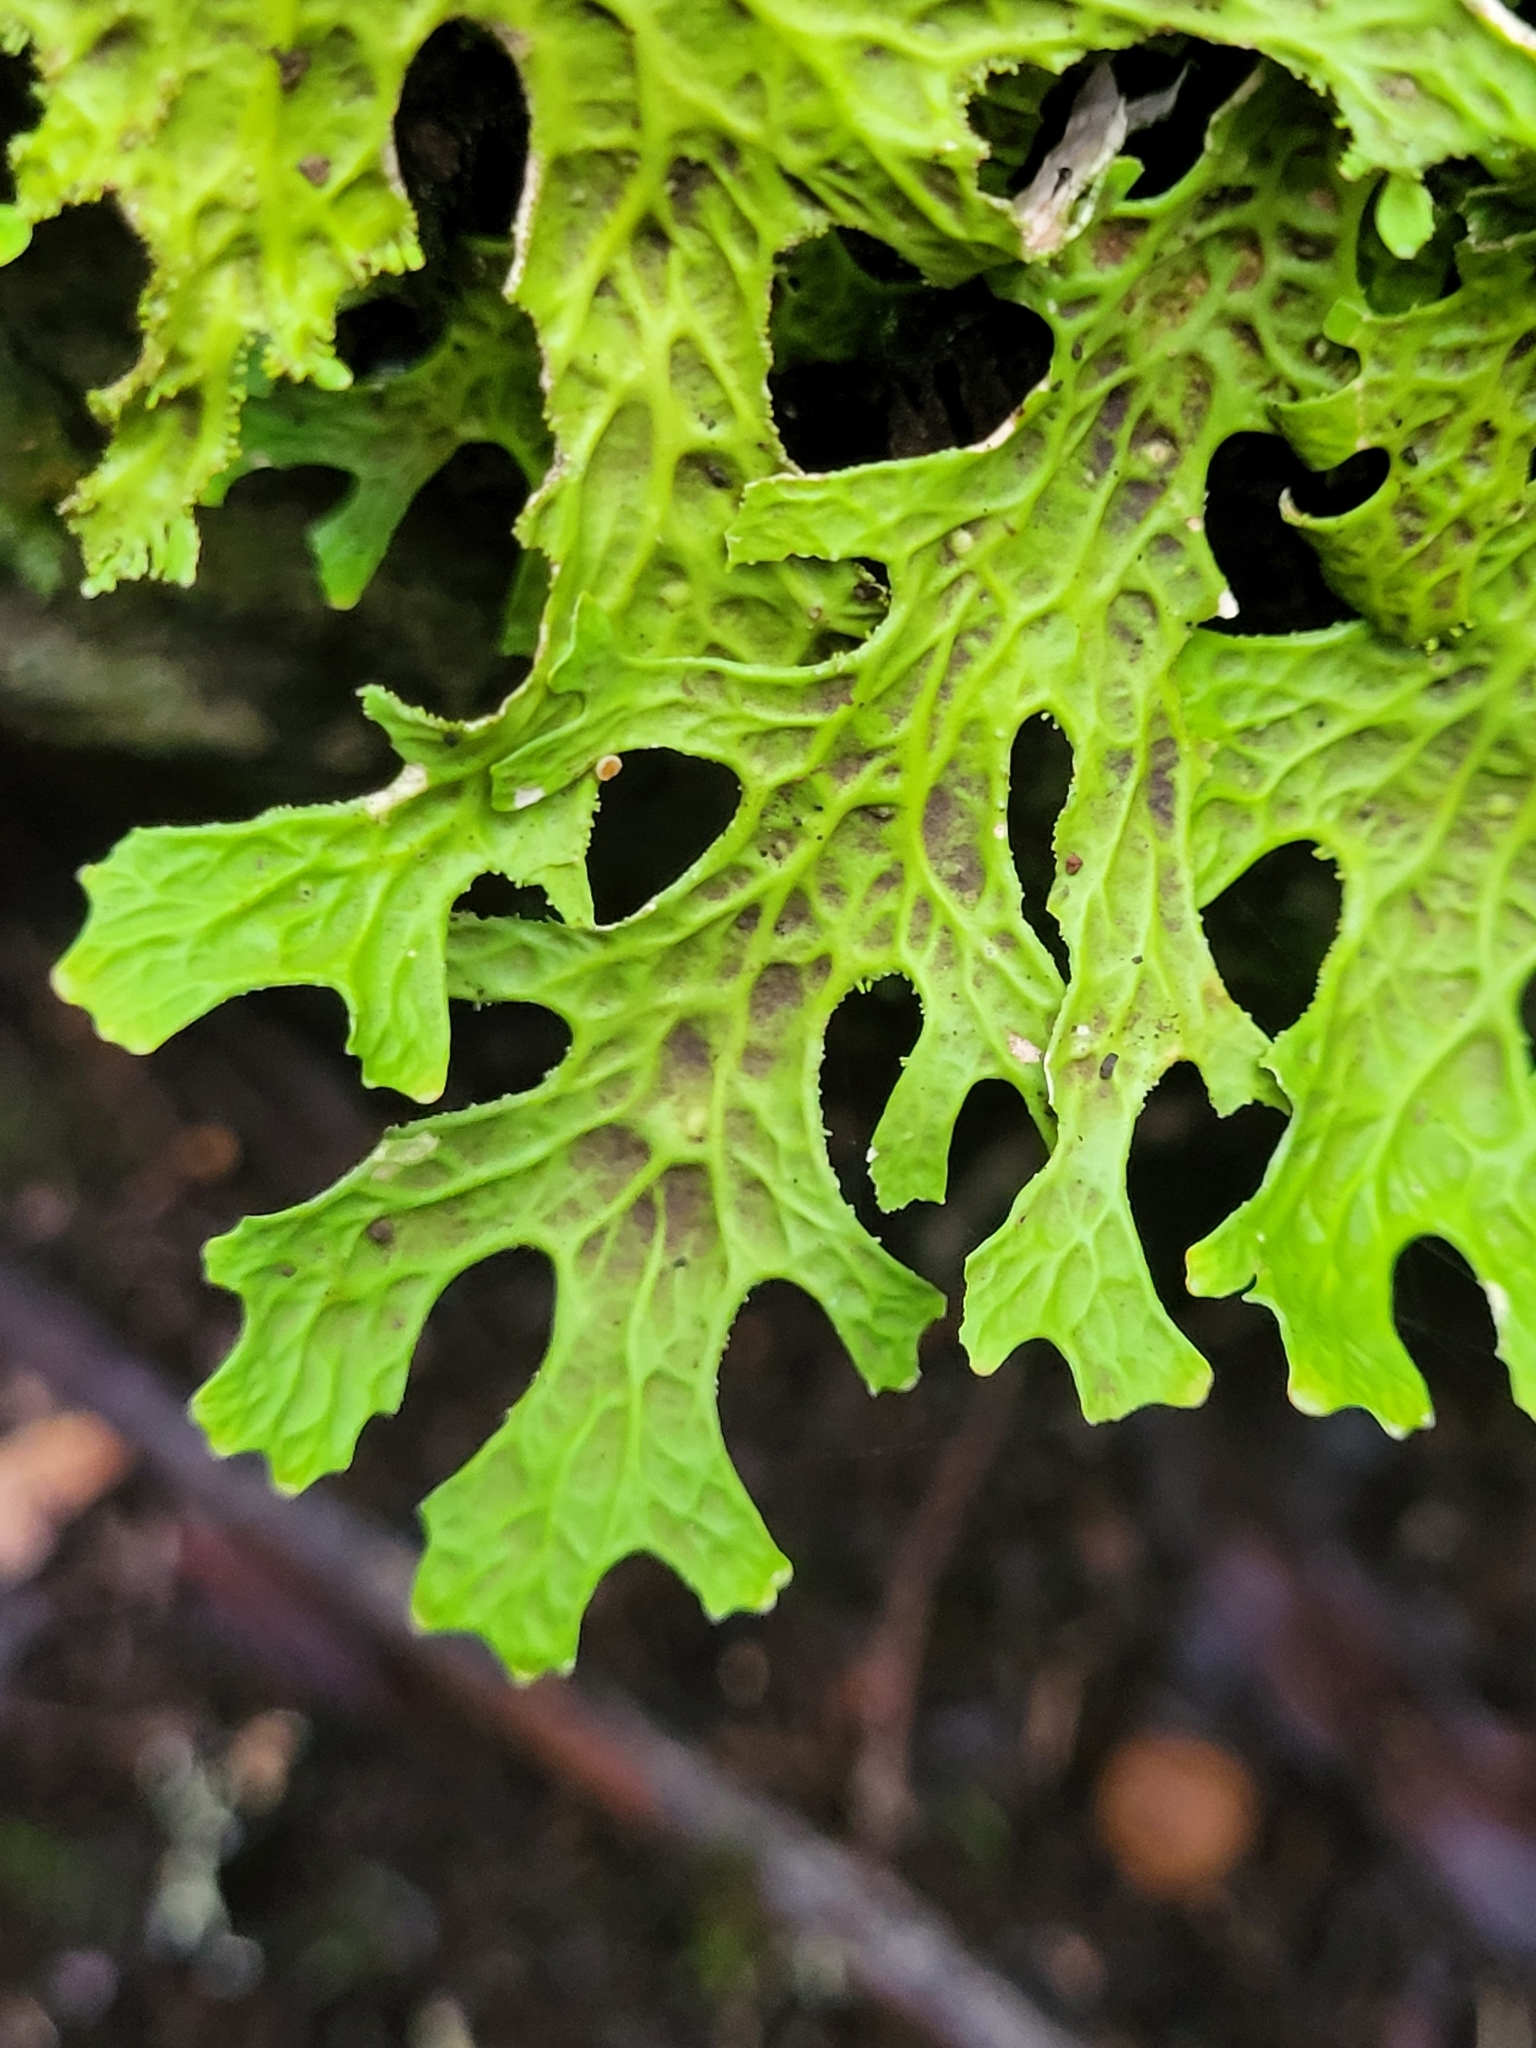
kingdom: Fungi
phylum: Ascomycota
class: Lecanoromycetes
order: Peltigerales
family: Lobariaceae
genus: Lobaria
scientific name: Lobaria pulmonaria
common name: Lungwort
